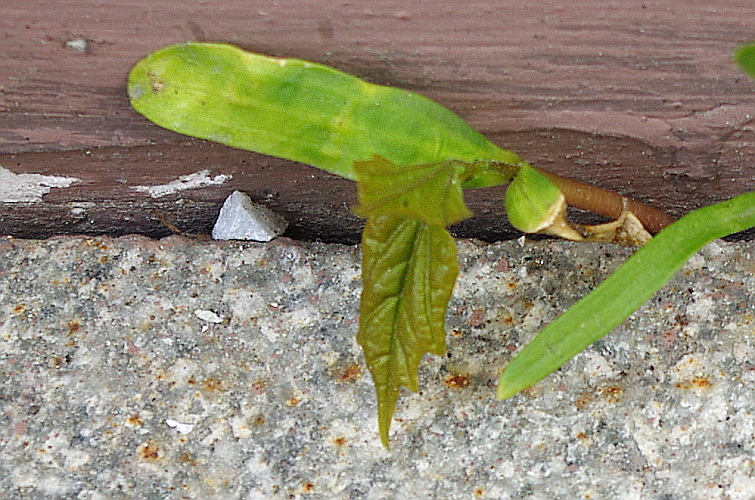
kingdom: Plantae
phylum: Tracheophyta
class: Magnoliopsida
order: Sapindales
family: Sapindaceae
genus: Acer
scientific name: Acer platanoides
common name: Norway maple
